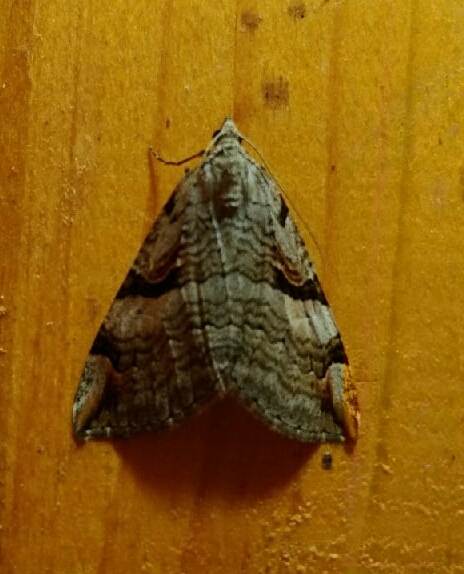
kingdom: Animalia
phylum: Arthropoda
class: Insecta
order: Lepidoptera
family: Geometridae
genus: Aplocera
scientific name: Aplocera praeformata
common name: Purple treble-bar
